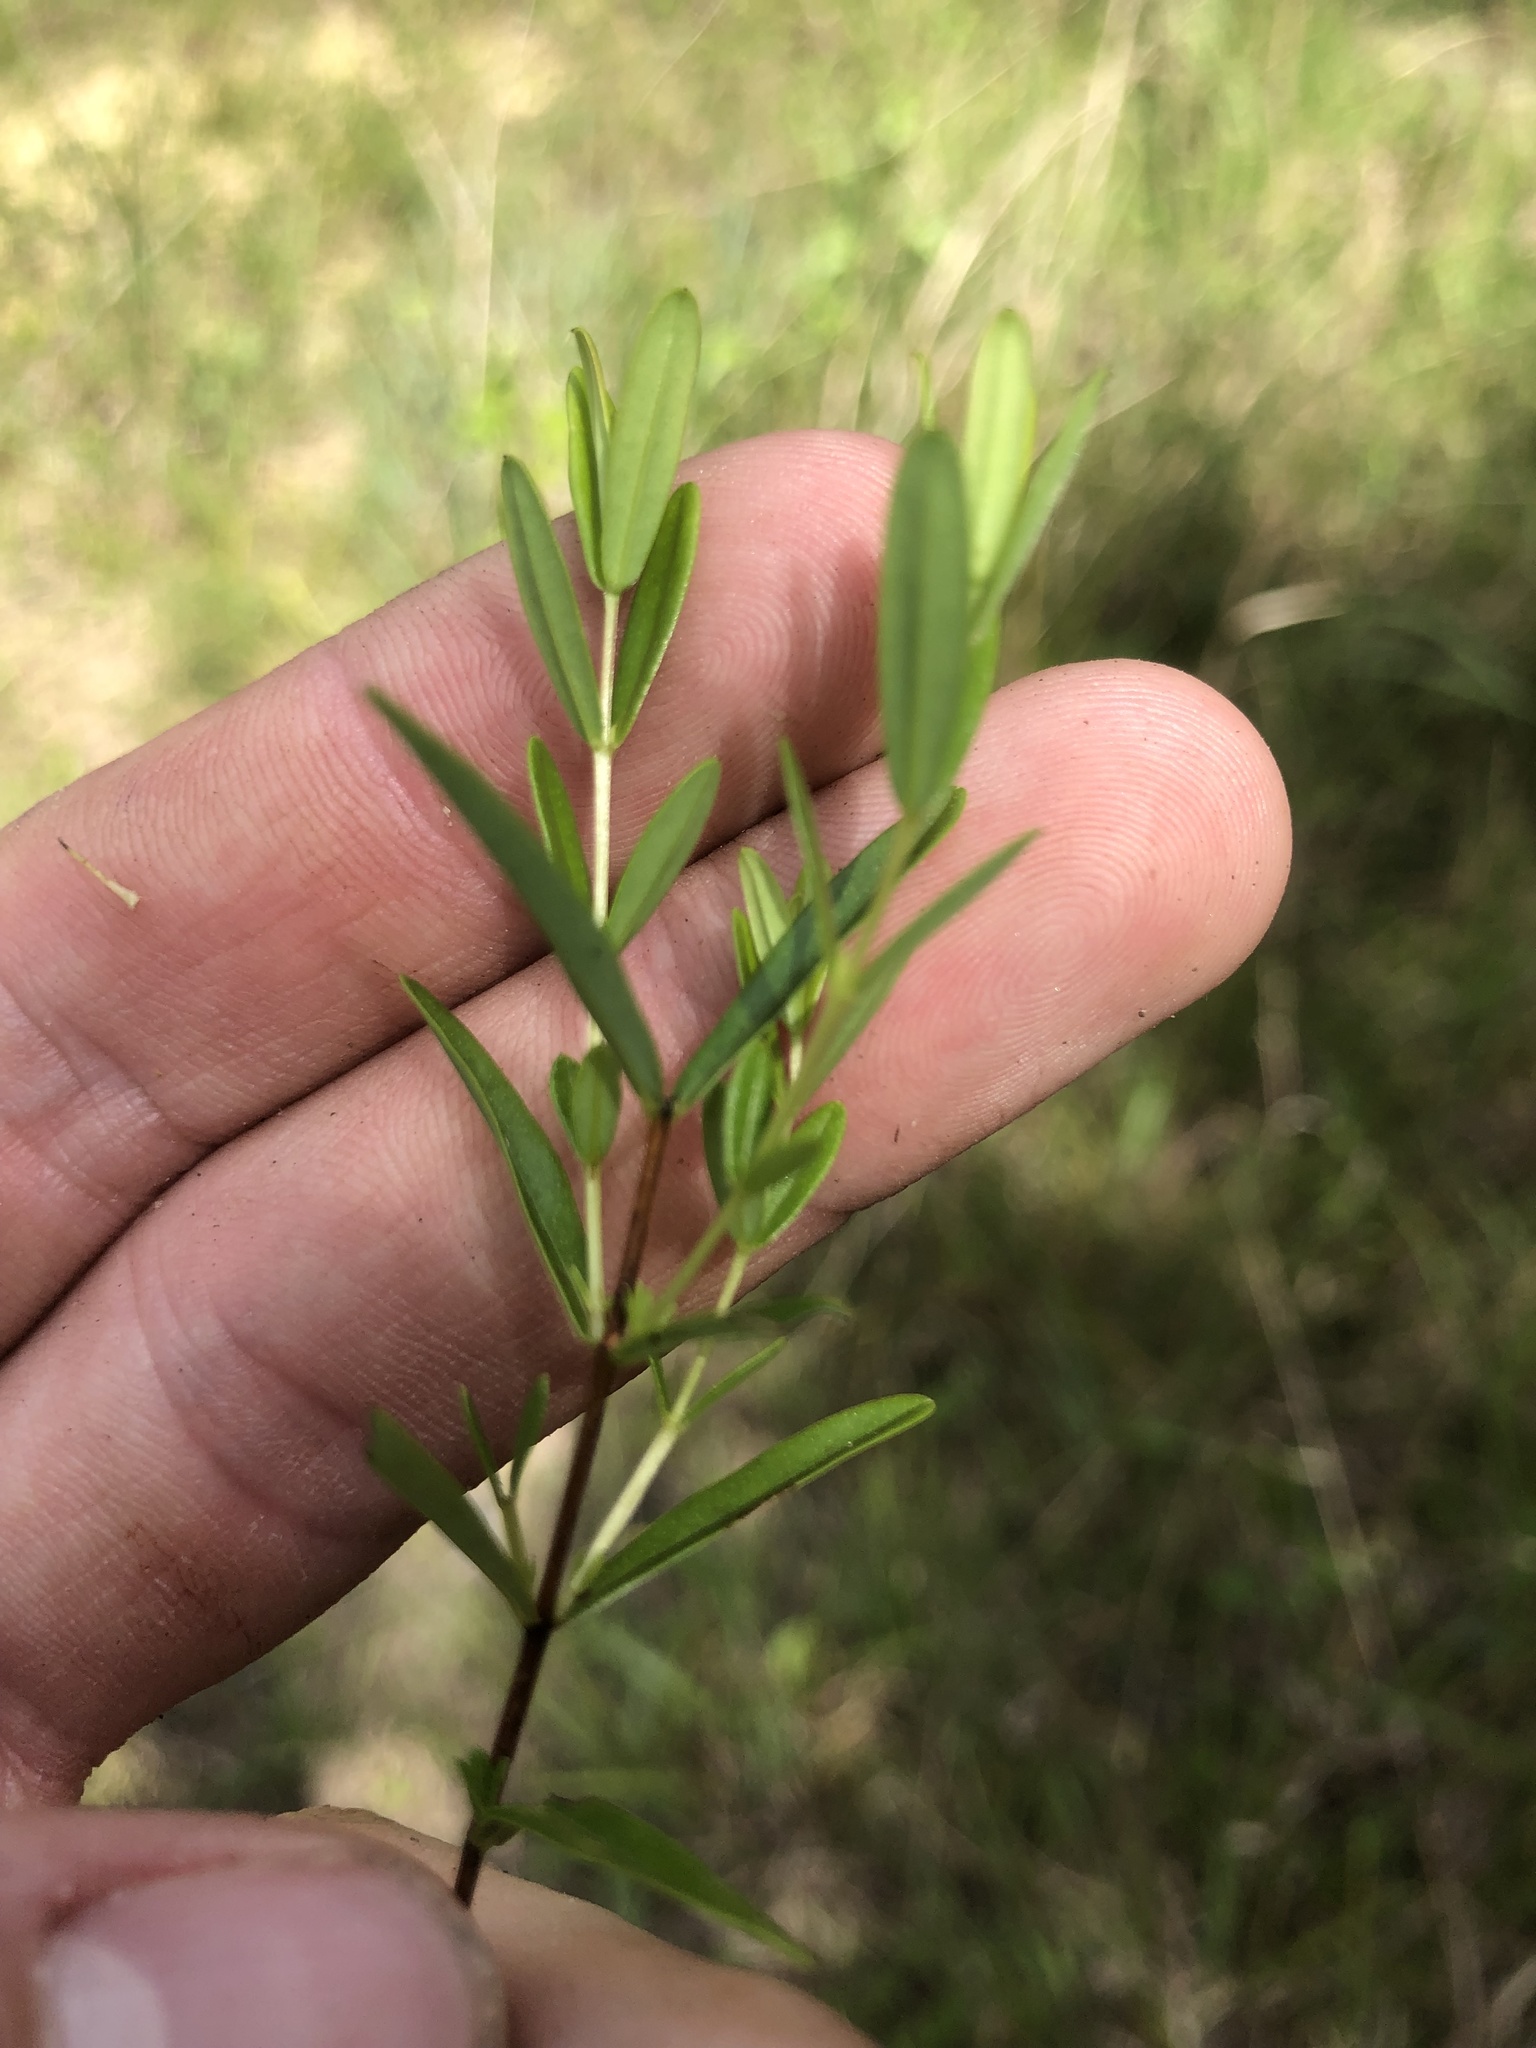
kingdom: Plantae
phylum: Tracheophyta
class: Magnoliopsida
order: Malpighiales
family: Hypericaceae
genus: Hypericum
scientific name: Hypericum sphaerocarpum
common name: Round-fruited st. john's-wort
